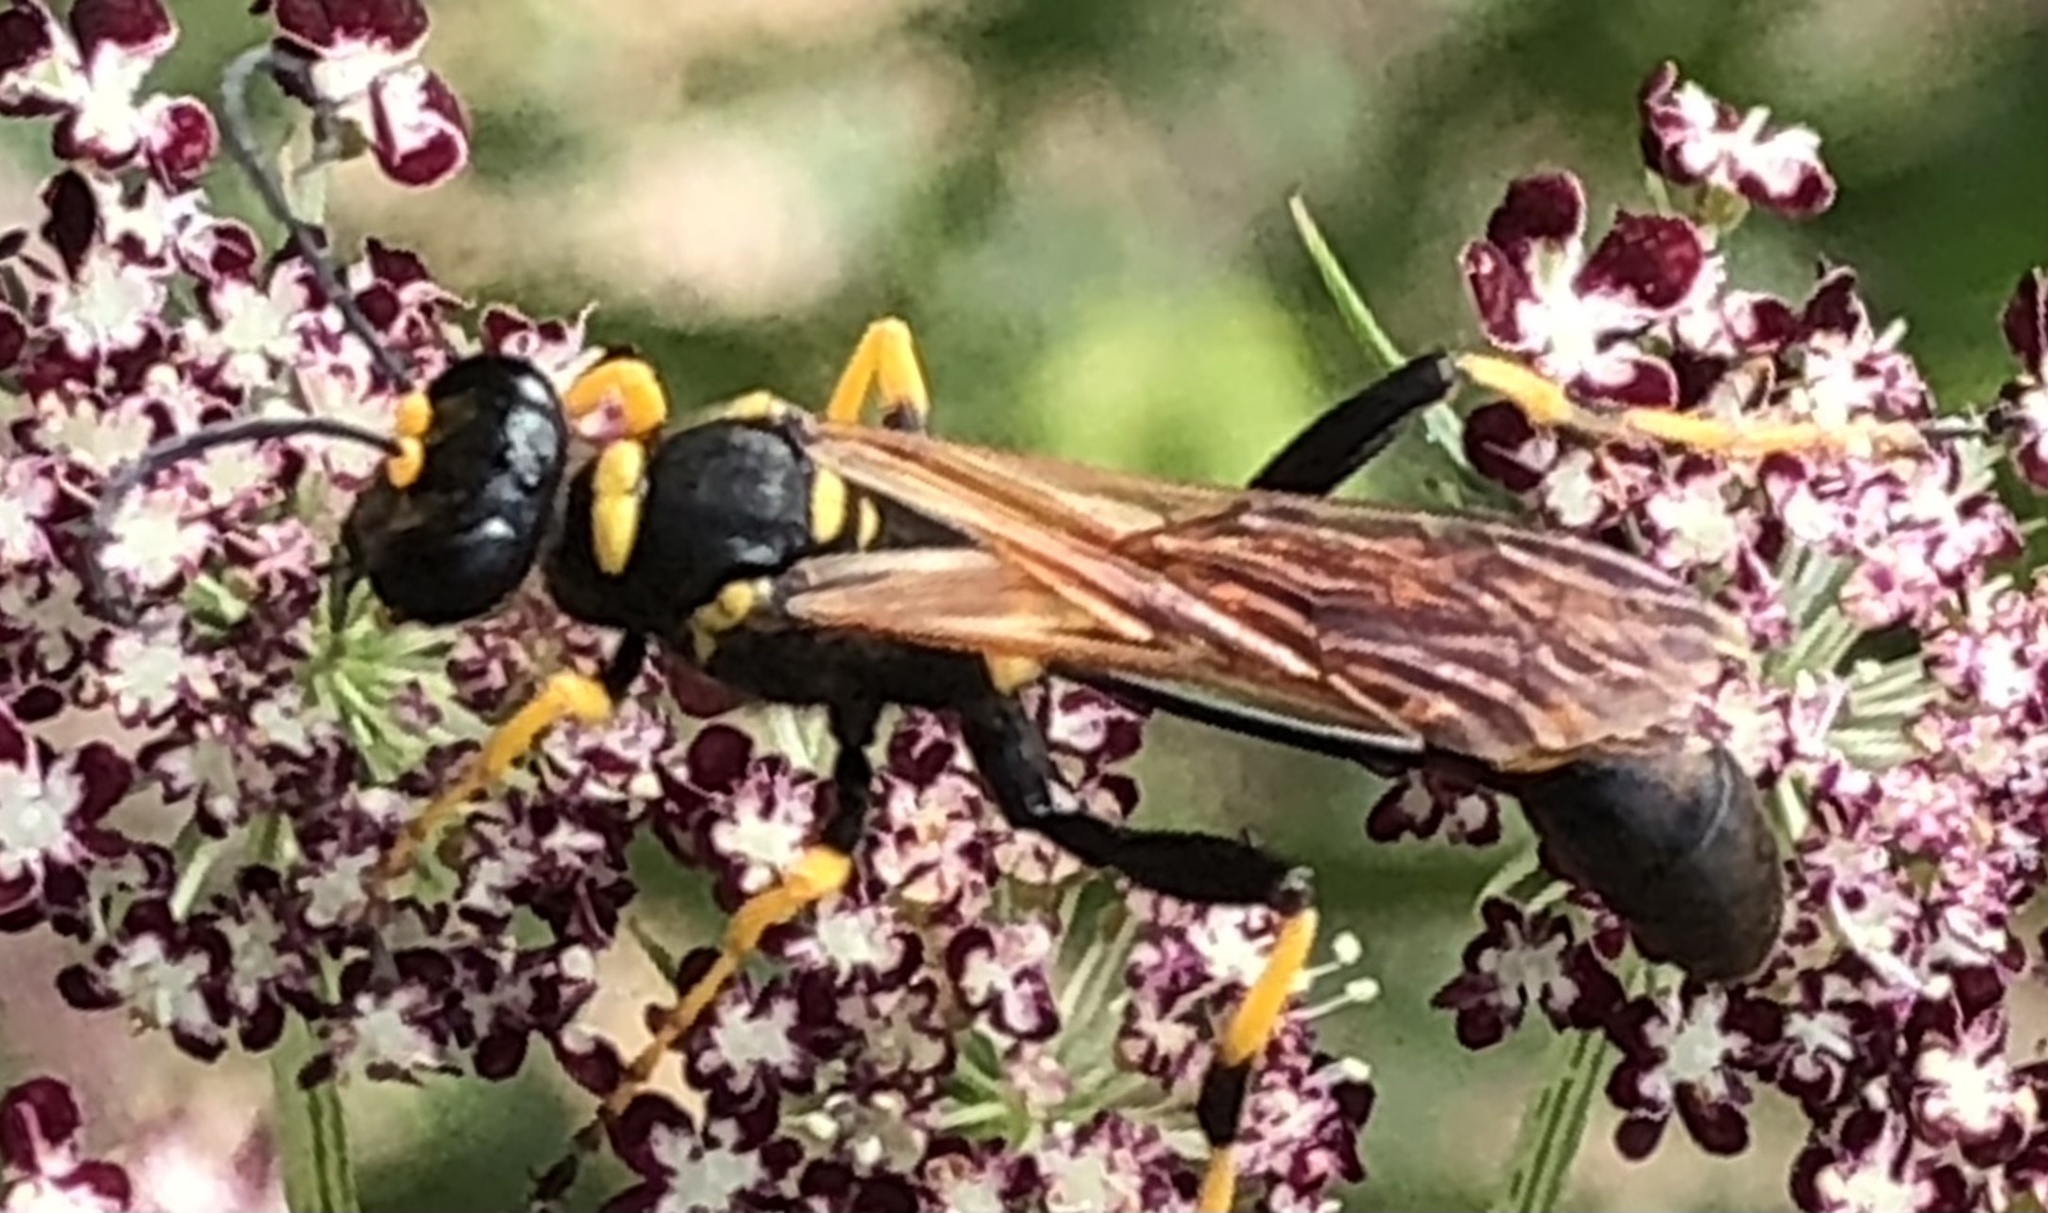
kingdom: Animalia
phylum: Arthropoda
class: Insecta
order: Hymenoptera
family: Sphecidae
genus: Sceliphron
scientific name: Sceliphron caementarium
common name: Mud dauber
